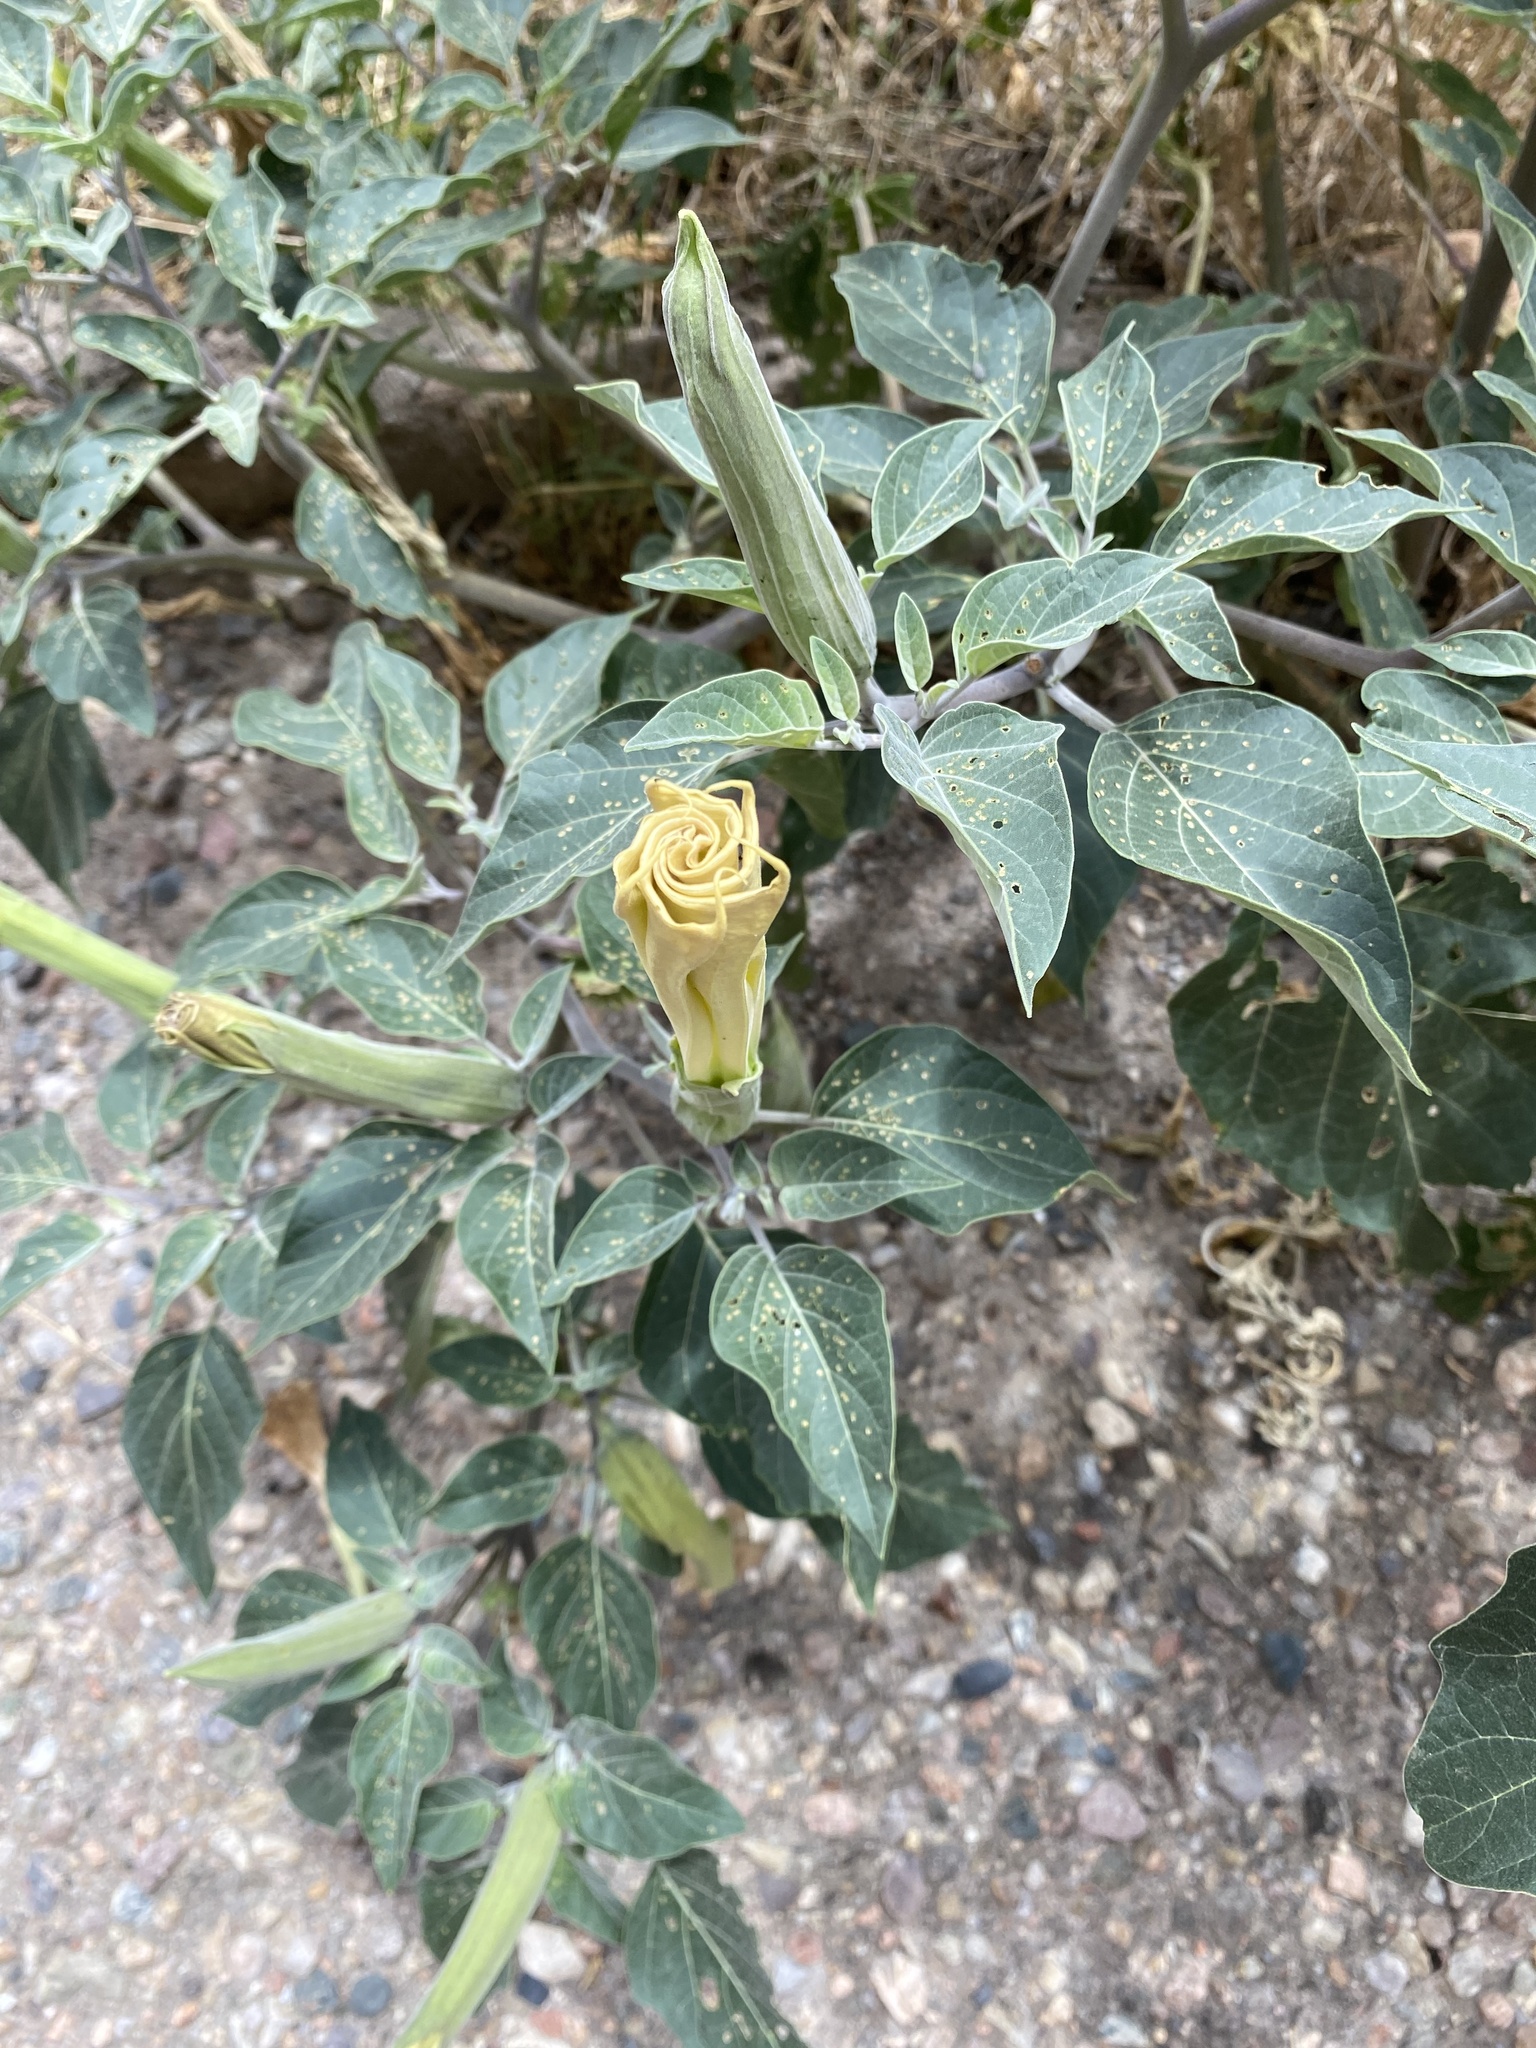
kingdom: Plantae
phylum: Tracheophyta
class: Magnoliopsida
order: Solanales
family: Solanaceae
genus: Datura
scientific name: Datura wrightii
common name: Sacred thorn-apple
